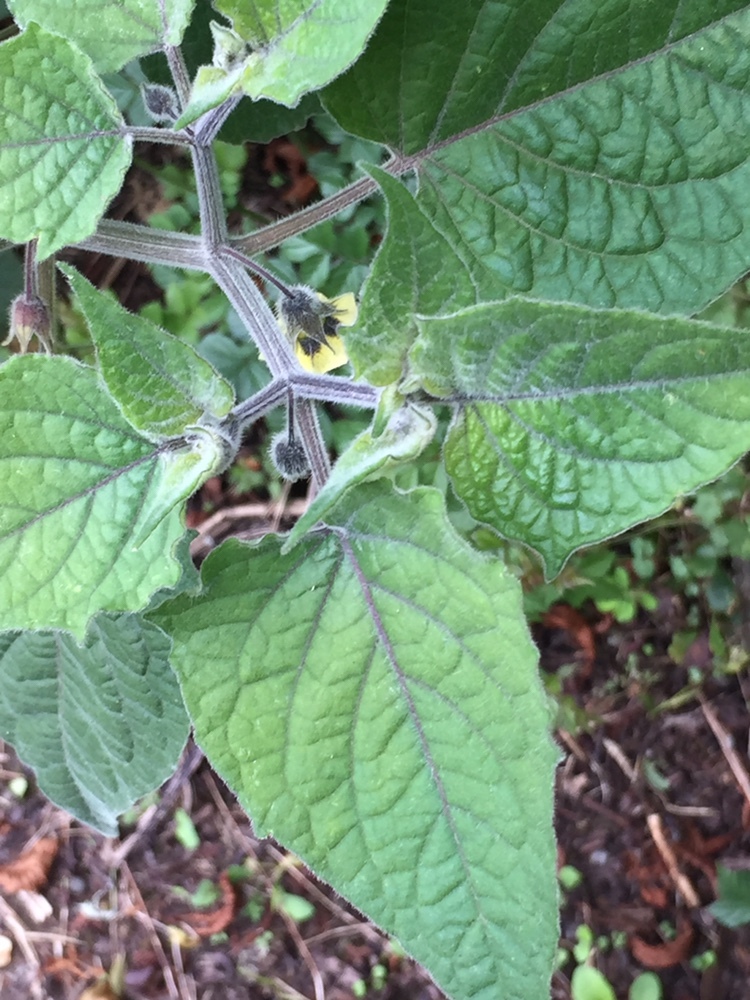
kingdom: Plantae
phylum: Tracheophyta
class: Magnoliopsida
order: Solanales
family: Solanaceae
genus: Physalis
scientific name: Physalis peruviana
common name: Cape-gooseberry
